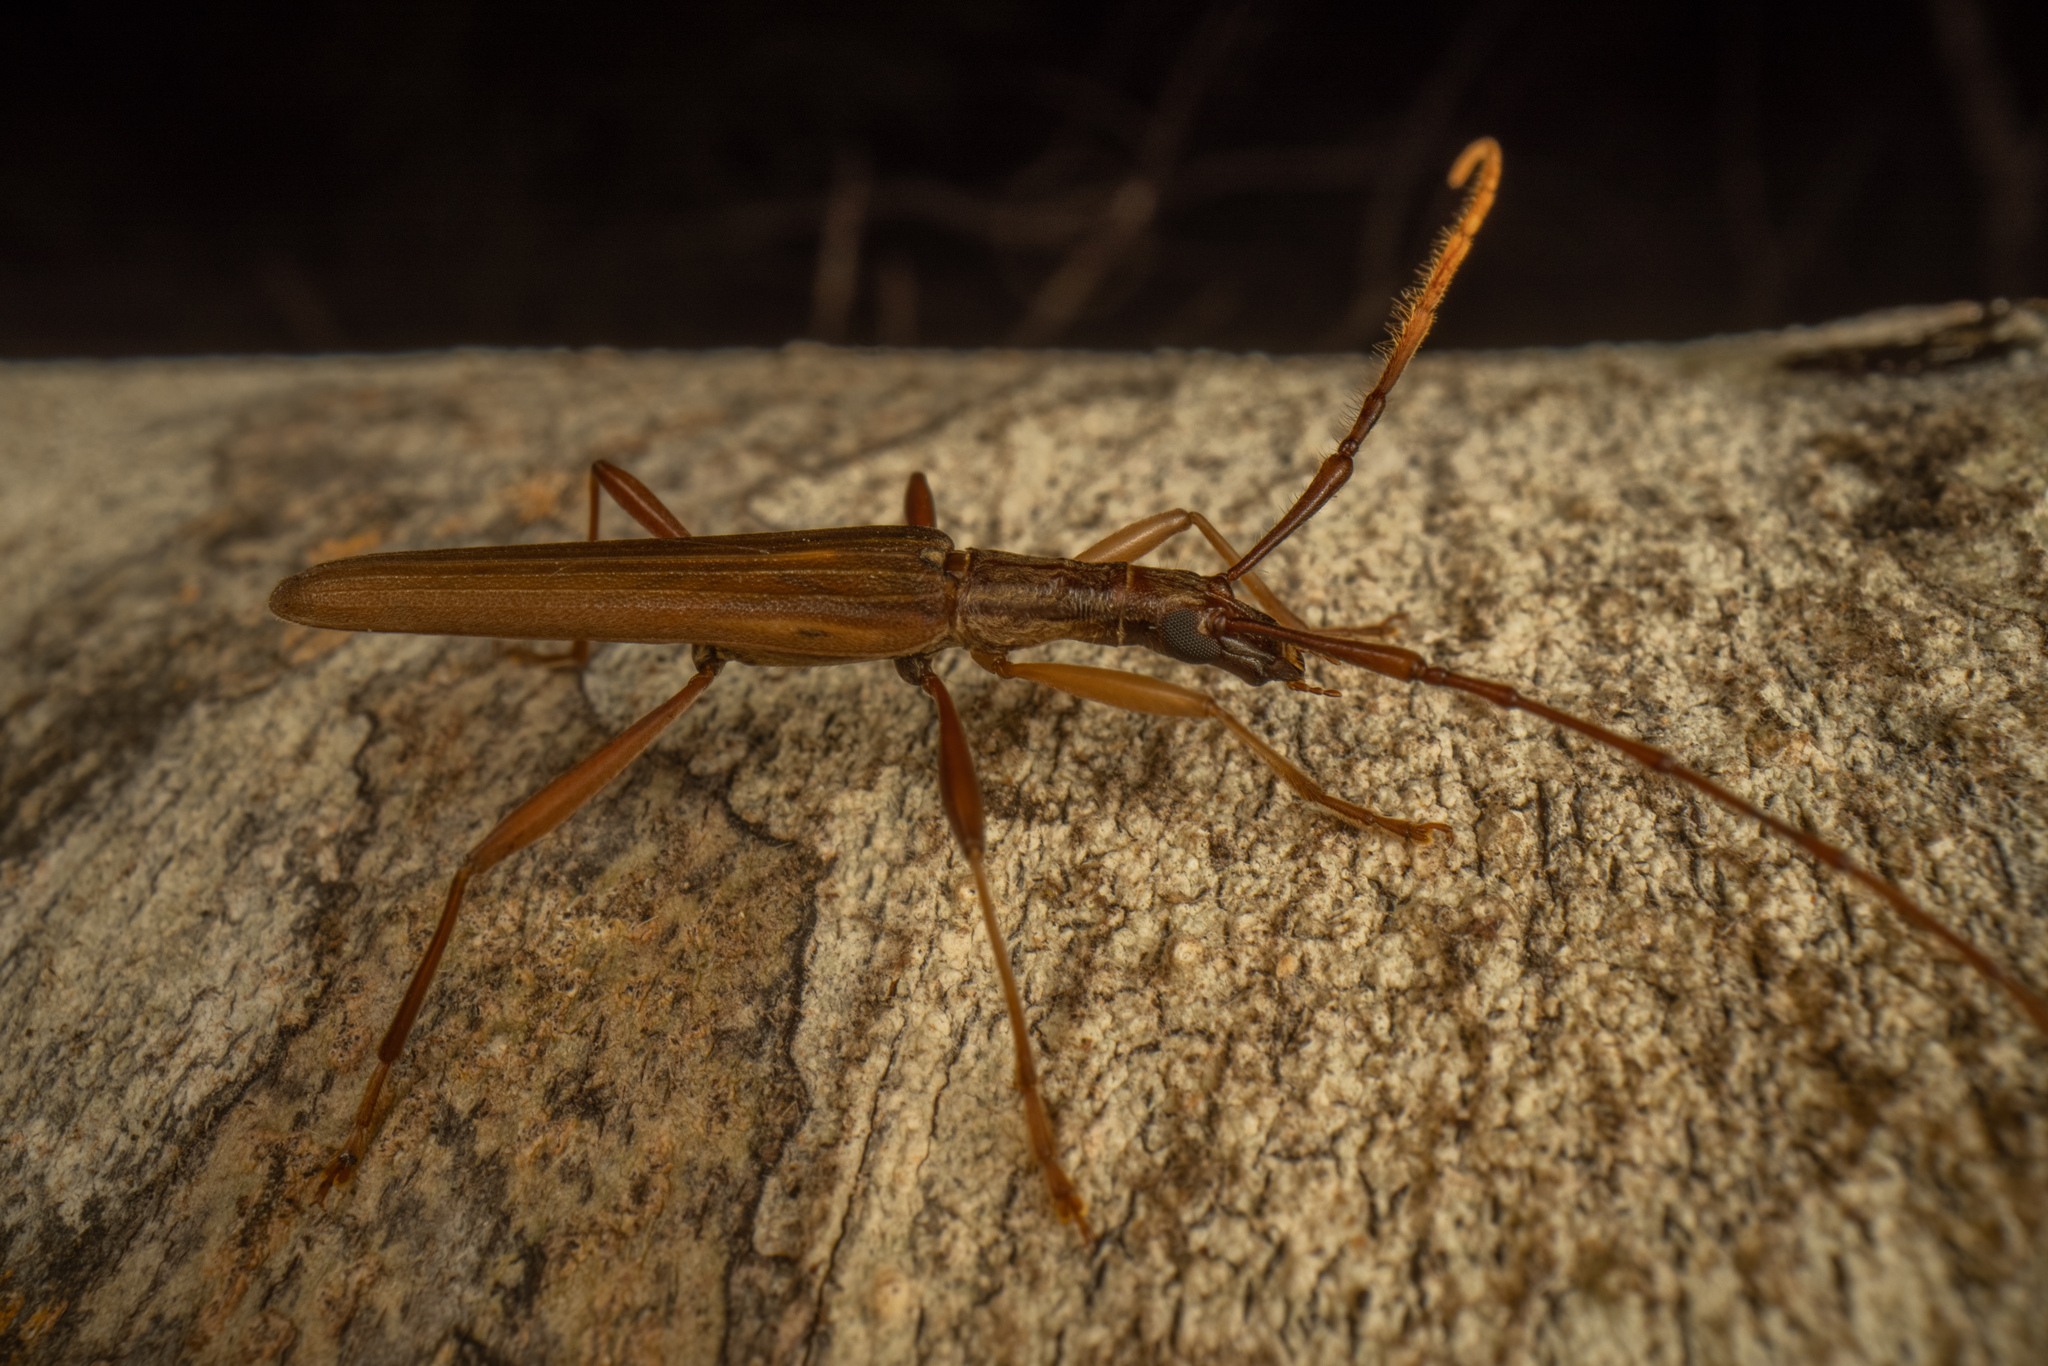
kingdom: Animalia
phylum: Arthropoda
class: Insecta
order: Coleoptera
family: Cerambycidae
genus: Stenopotes
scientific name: Stenopotes pallidus
